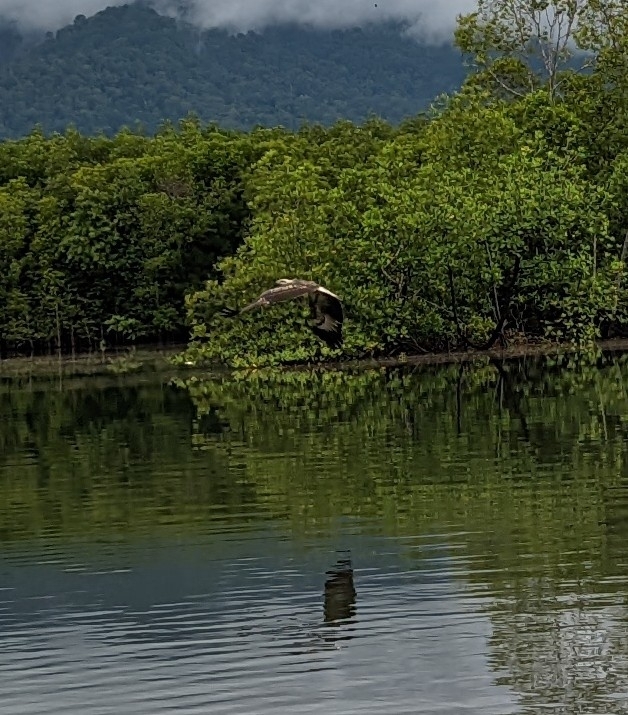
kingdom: Animalia
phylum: Chordata
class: Aves
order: Accipitriformes
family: Accipitridae
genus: Haliaeetus
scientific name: Haliaeetus leucogaster
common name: White-bellied sea eagle
